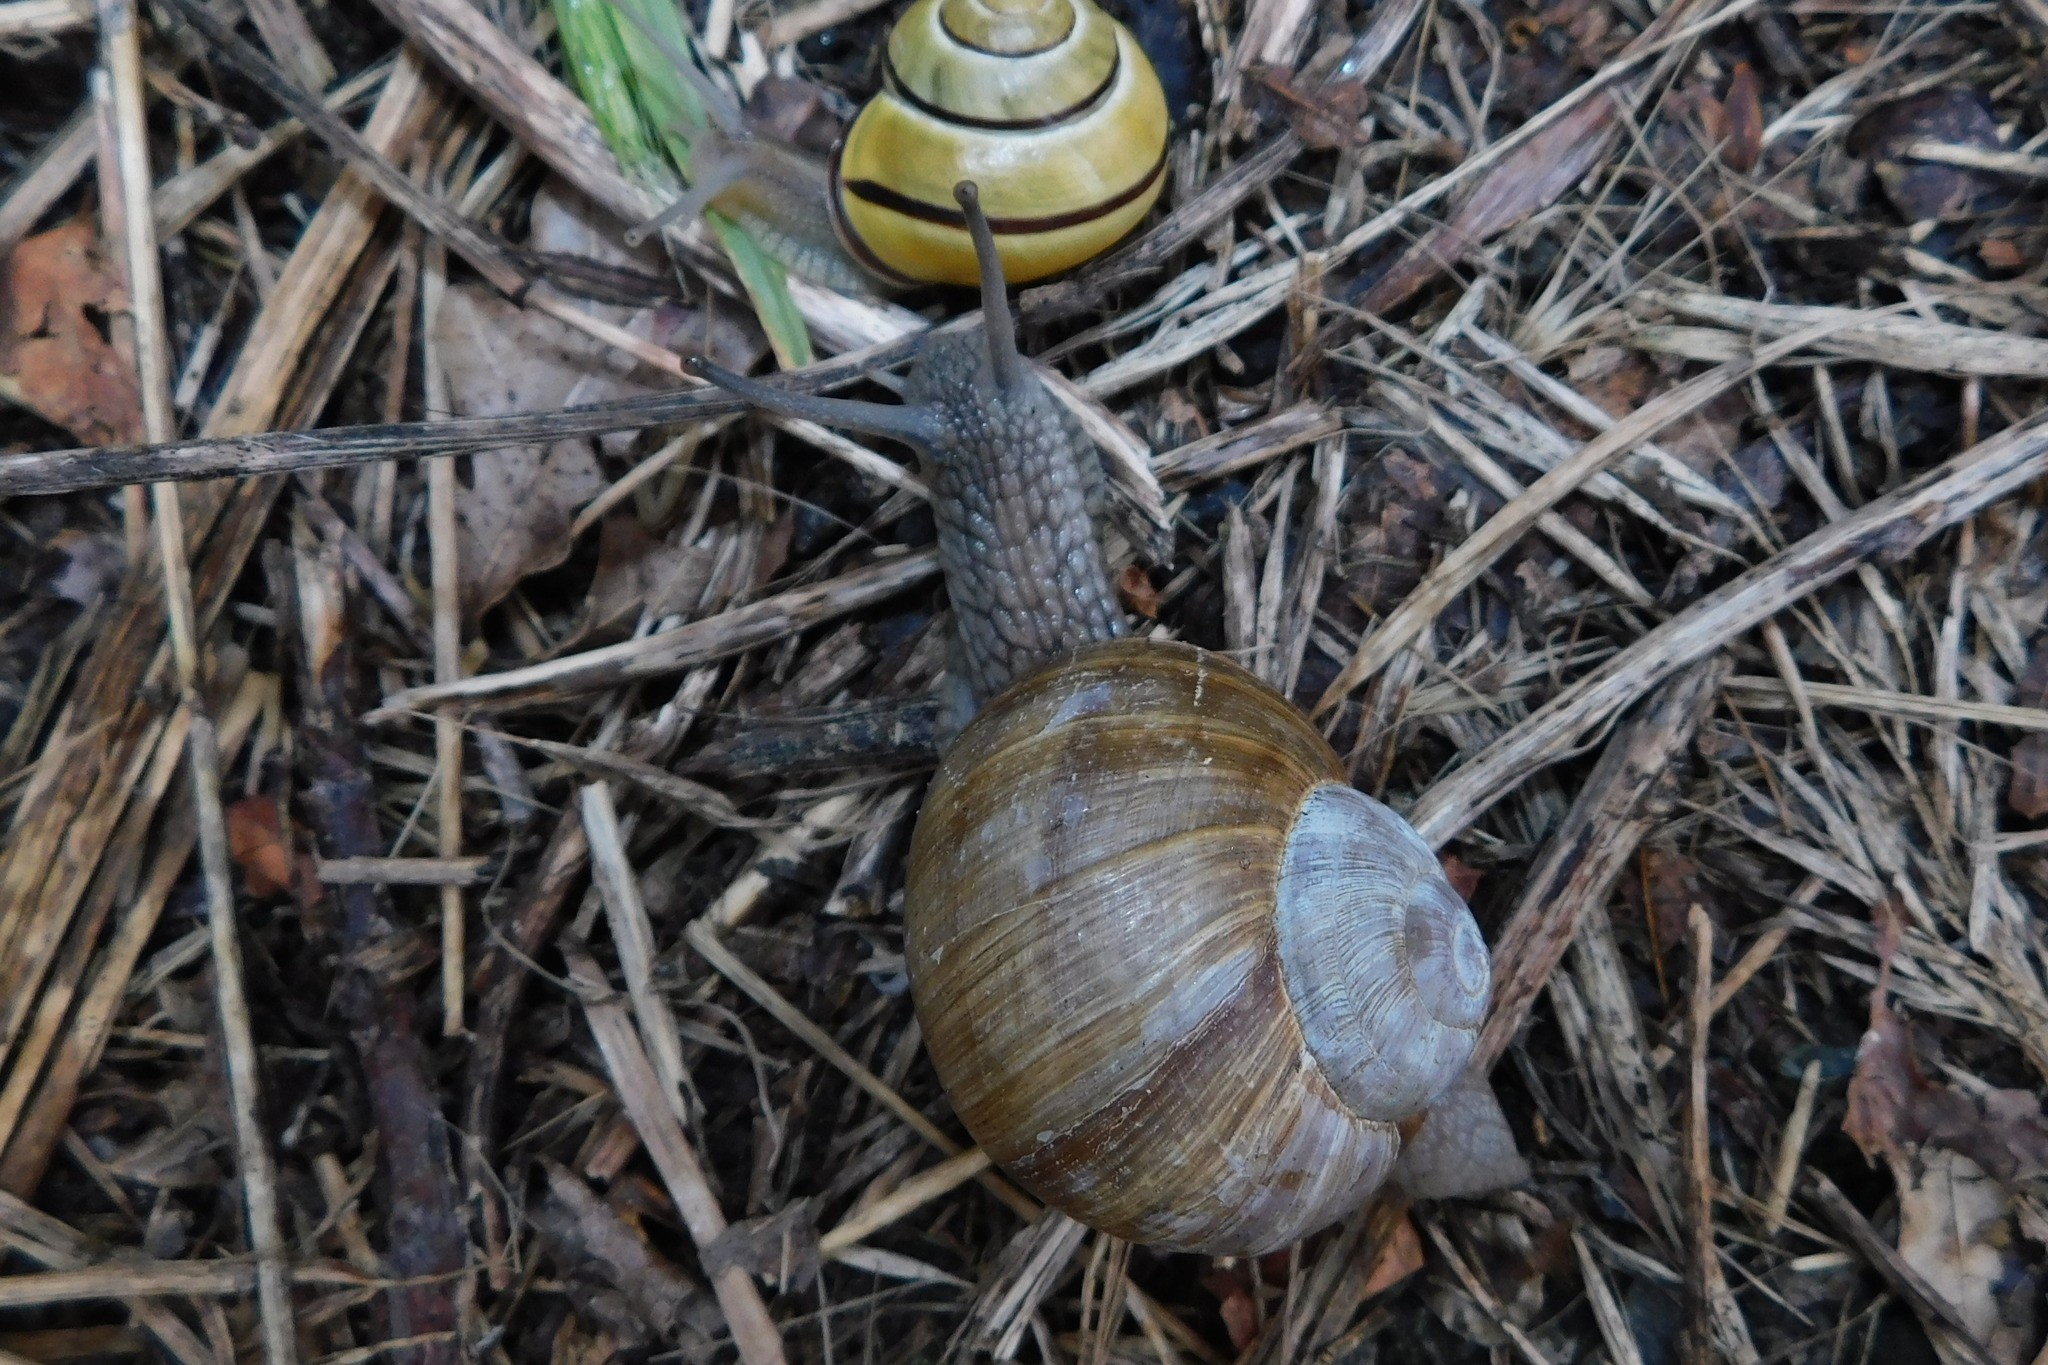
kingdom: Animalia
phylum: Mollusca
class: Gastropoda
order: Stylommatophora
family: Helicidae
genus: Helix
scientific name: Helix pomatia
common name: Roman snail
